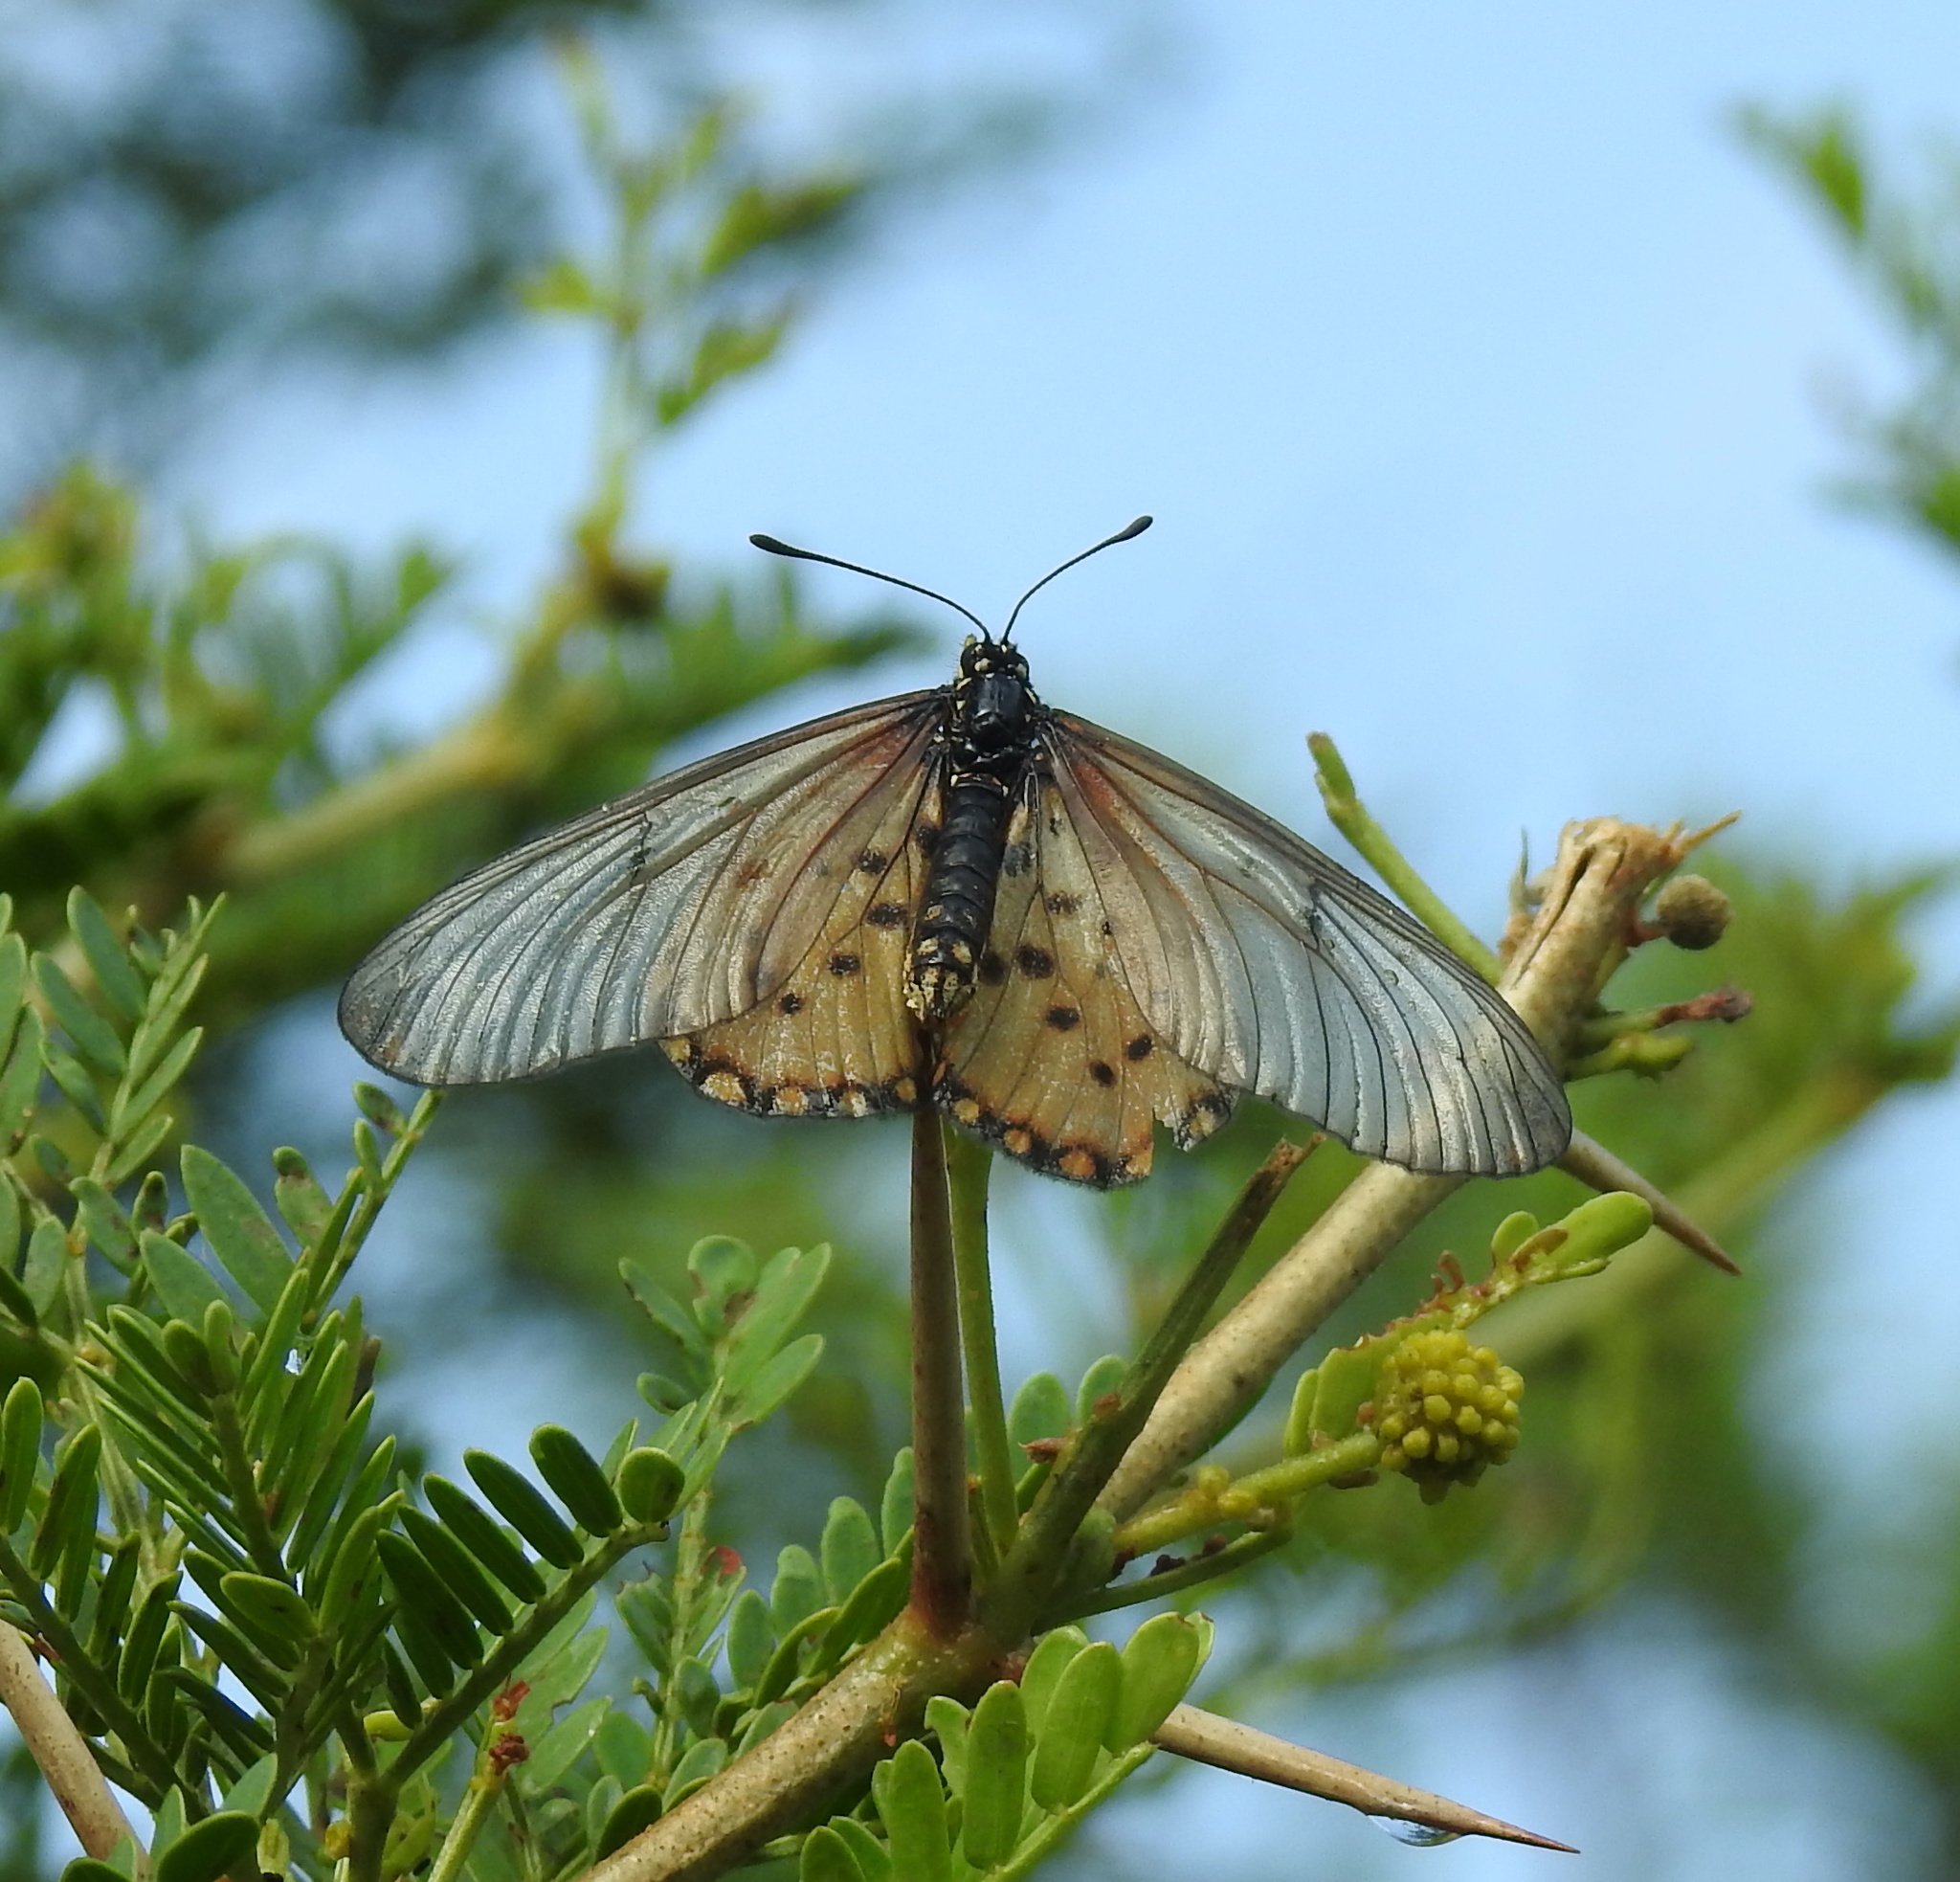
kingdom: Animalia
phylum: Arthropoda
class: Insecta
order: Lepidoptera
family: Nymphalidae
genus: Acraea
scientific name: Acraea horta
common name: Garden acraea
